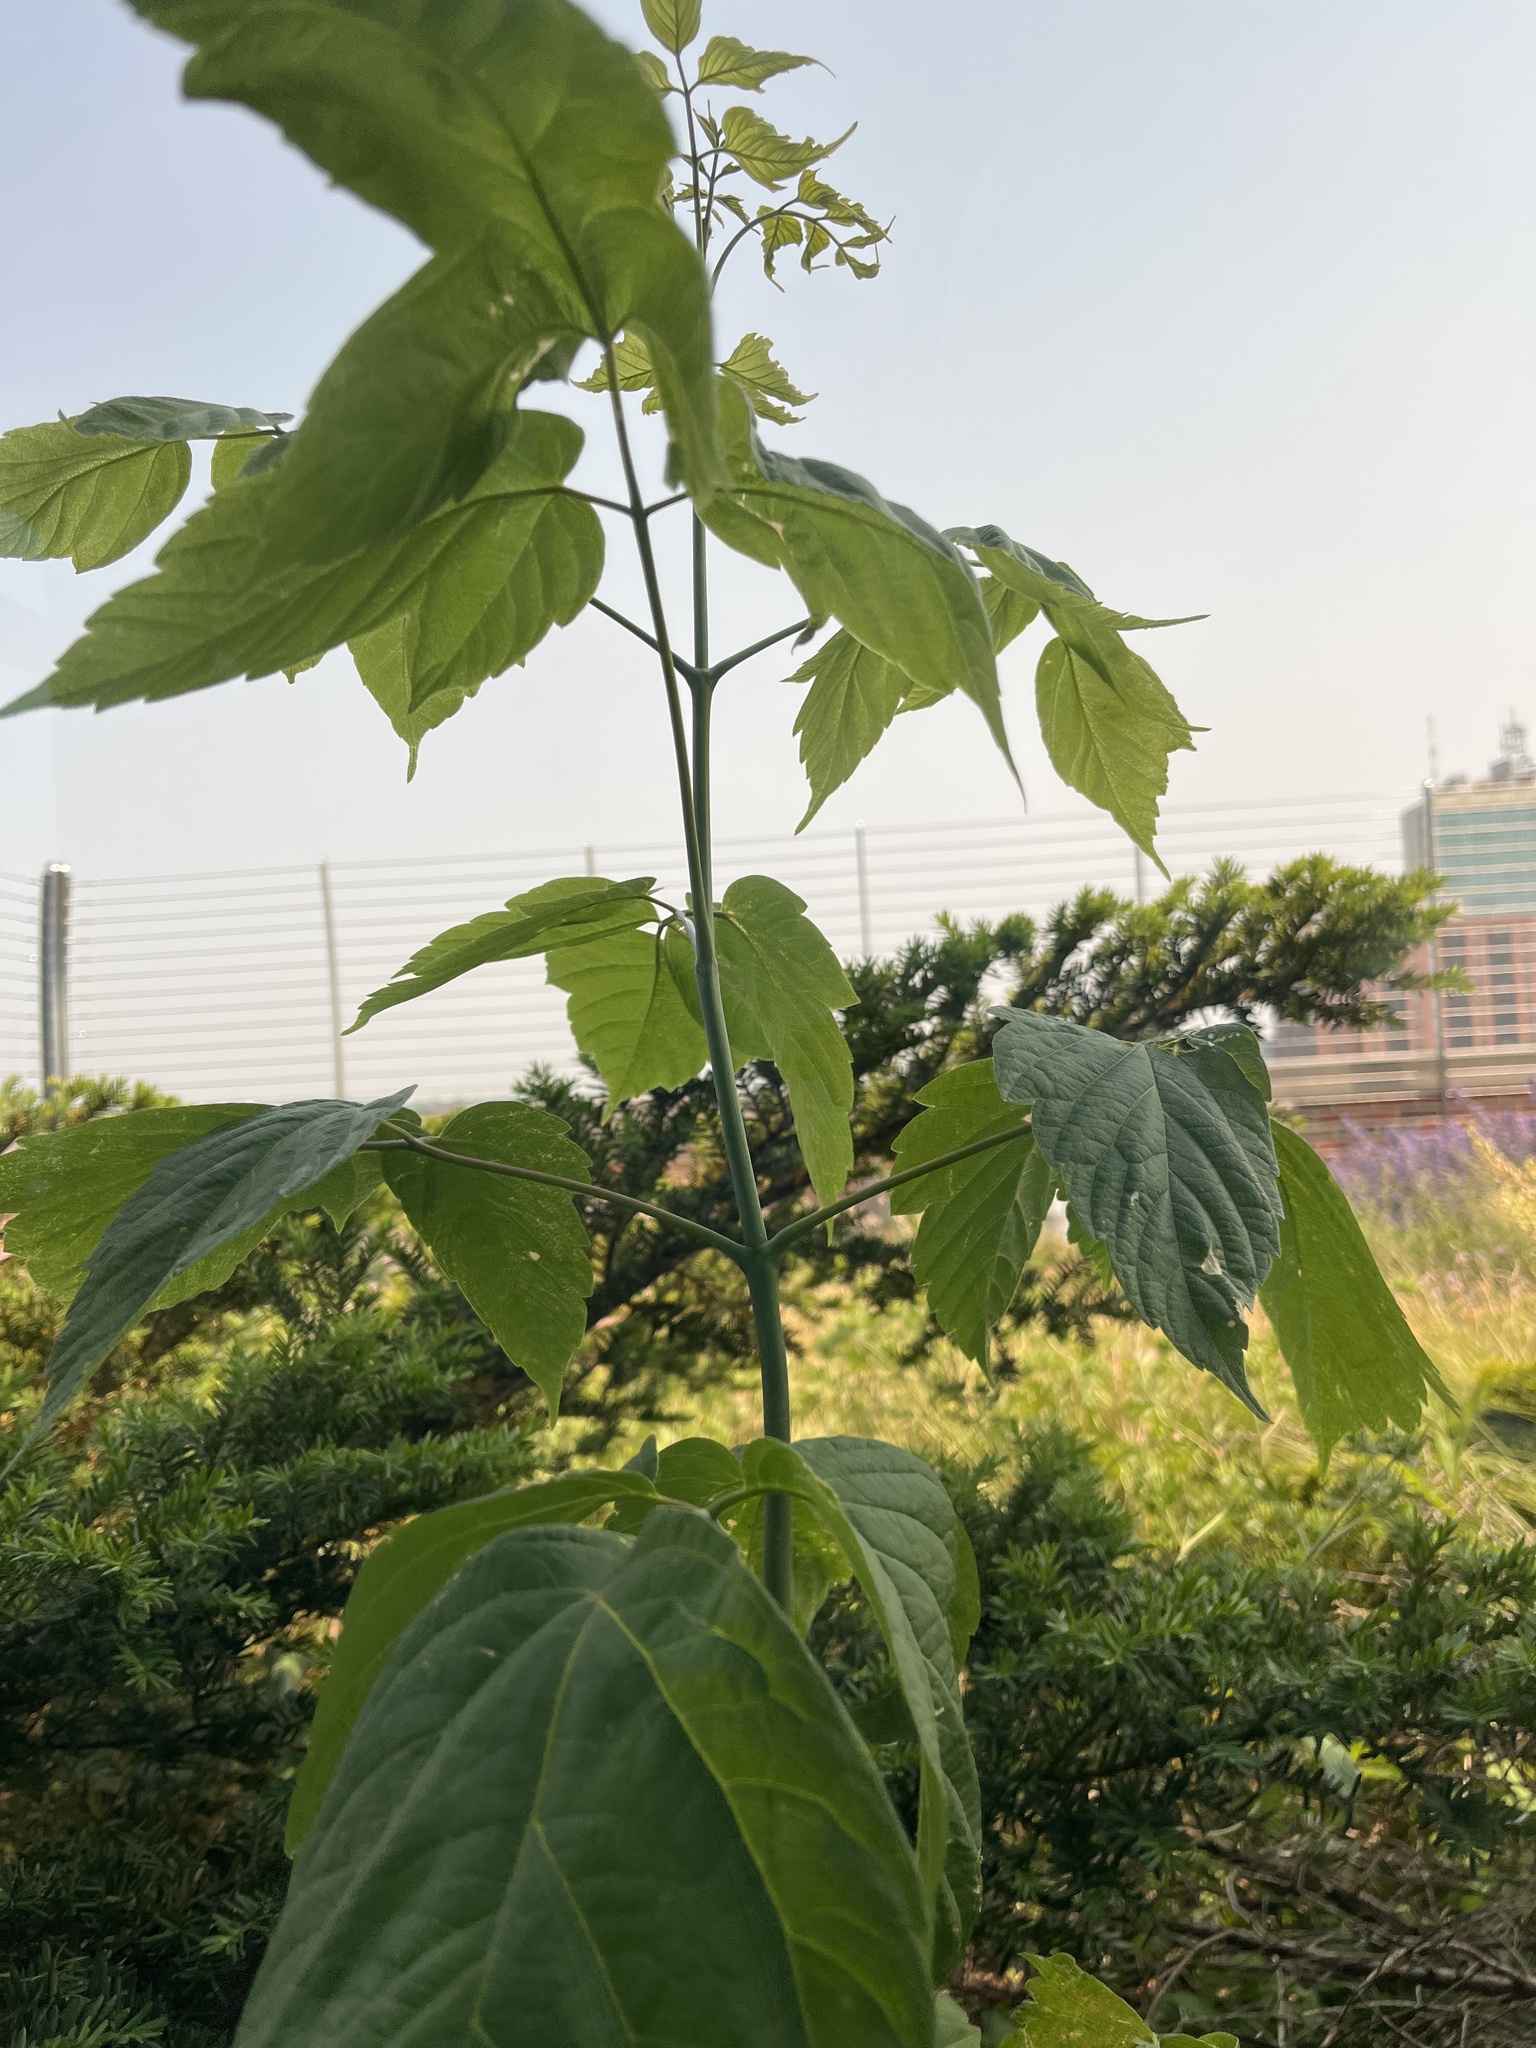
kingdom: Plantae
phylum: Tracheophyta
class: Magnoliopsida
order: Sapindales
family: Sapindaceae
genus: Acer
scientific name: Acer negundo
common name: Ashleaf maple
